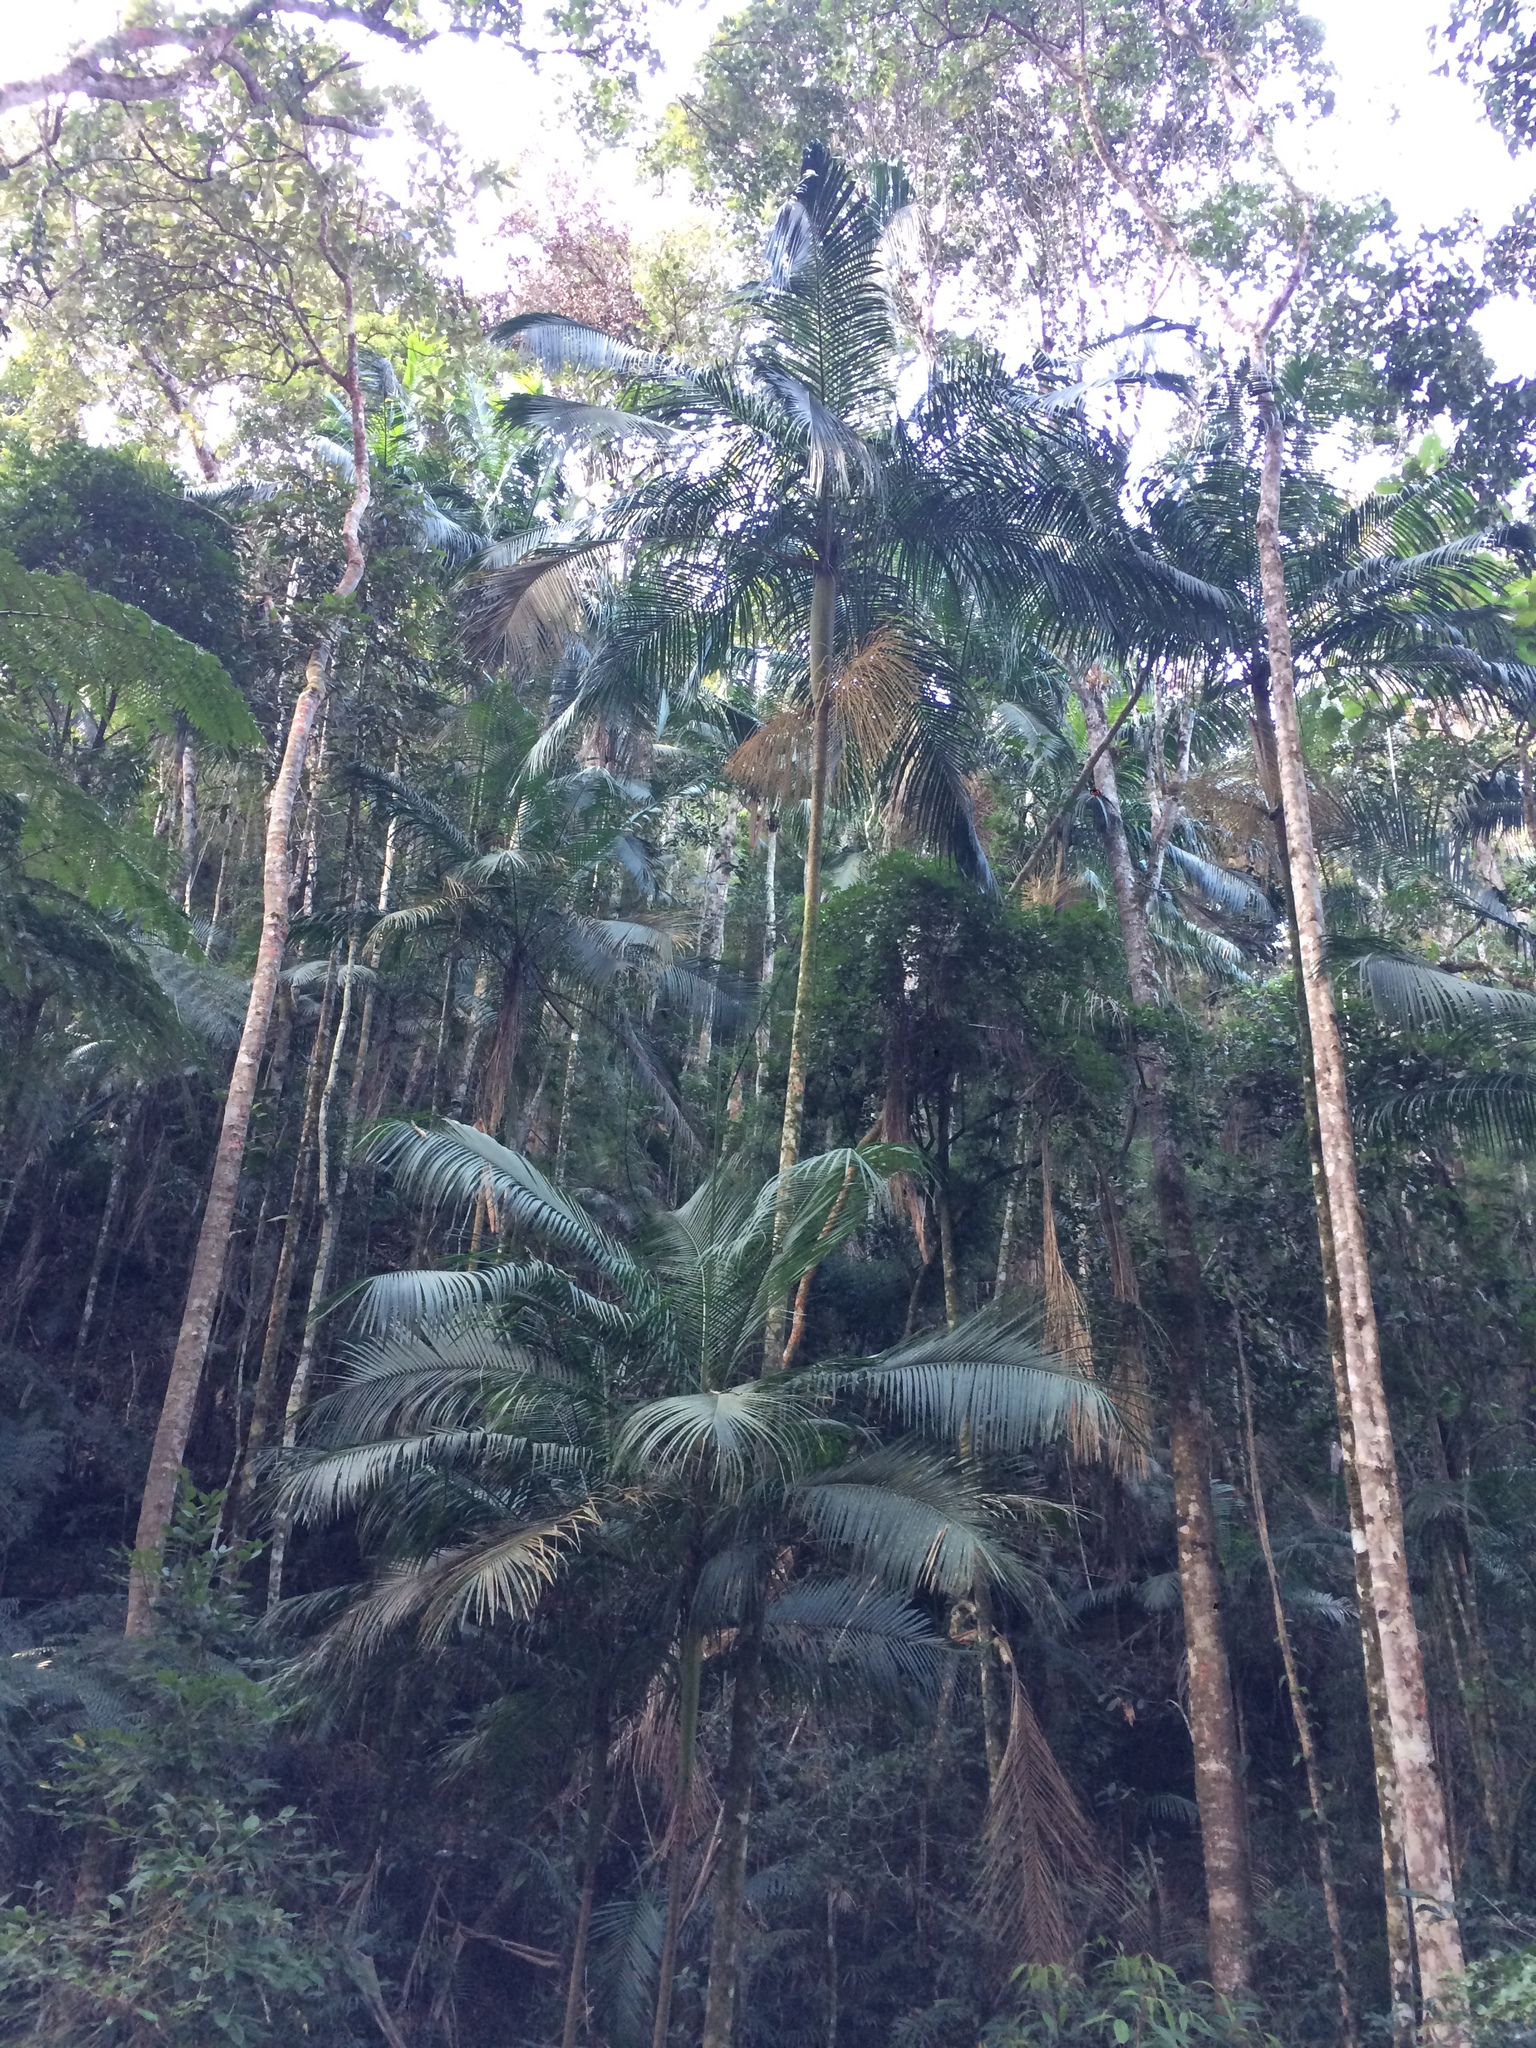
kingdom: Plantae
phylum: Tracheophyta
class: Liliopsida
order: Arecales
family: Arecaceae
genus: Euterpe
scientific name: Euterpe edulis
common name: Assai palm
